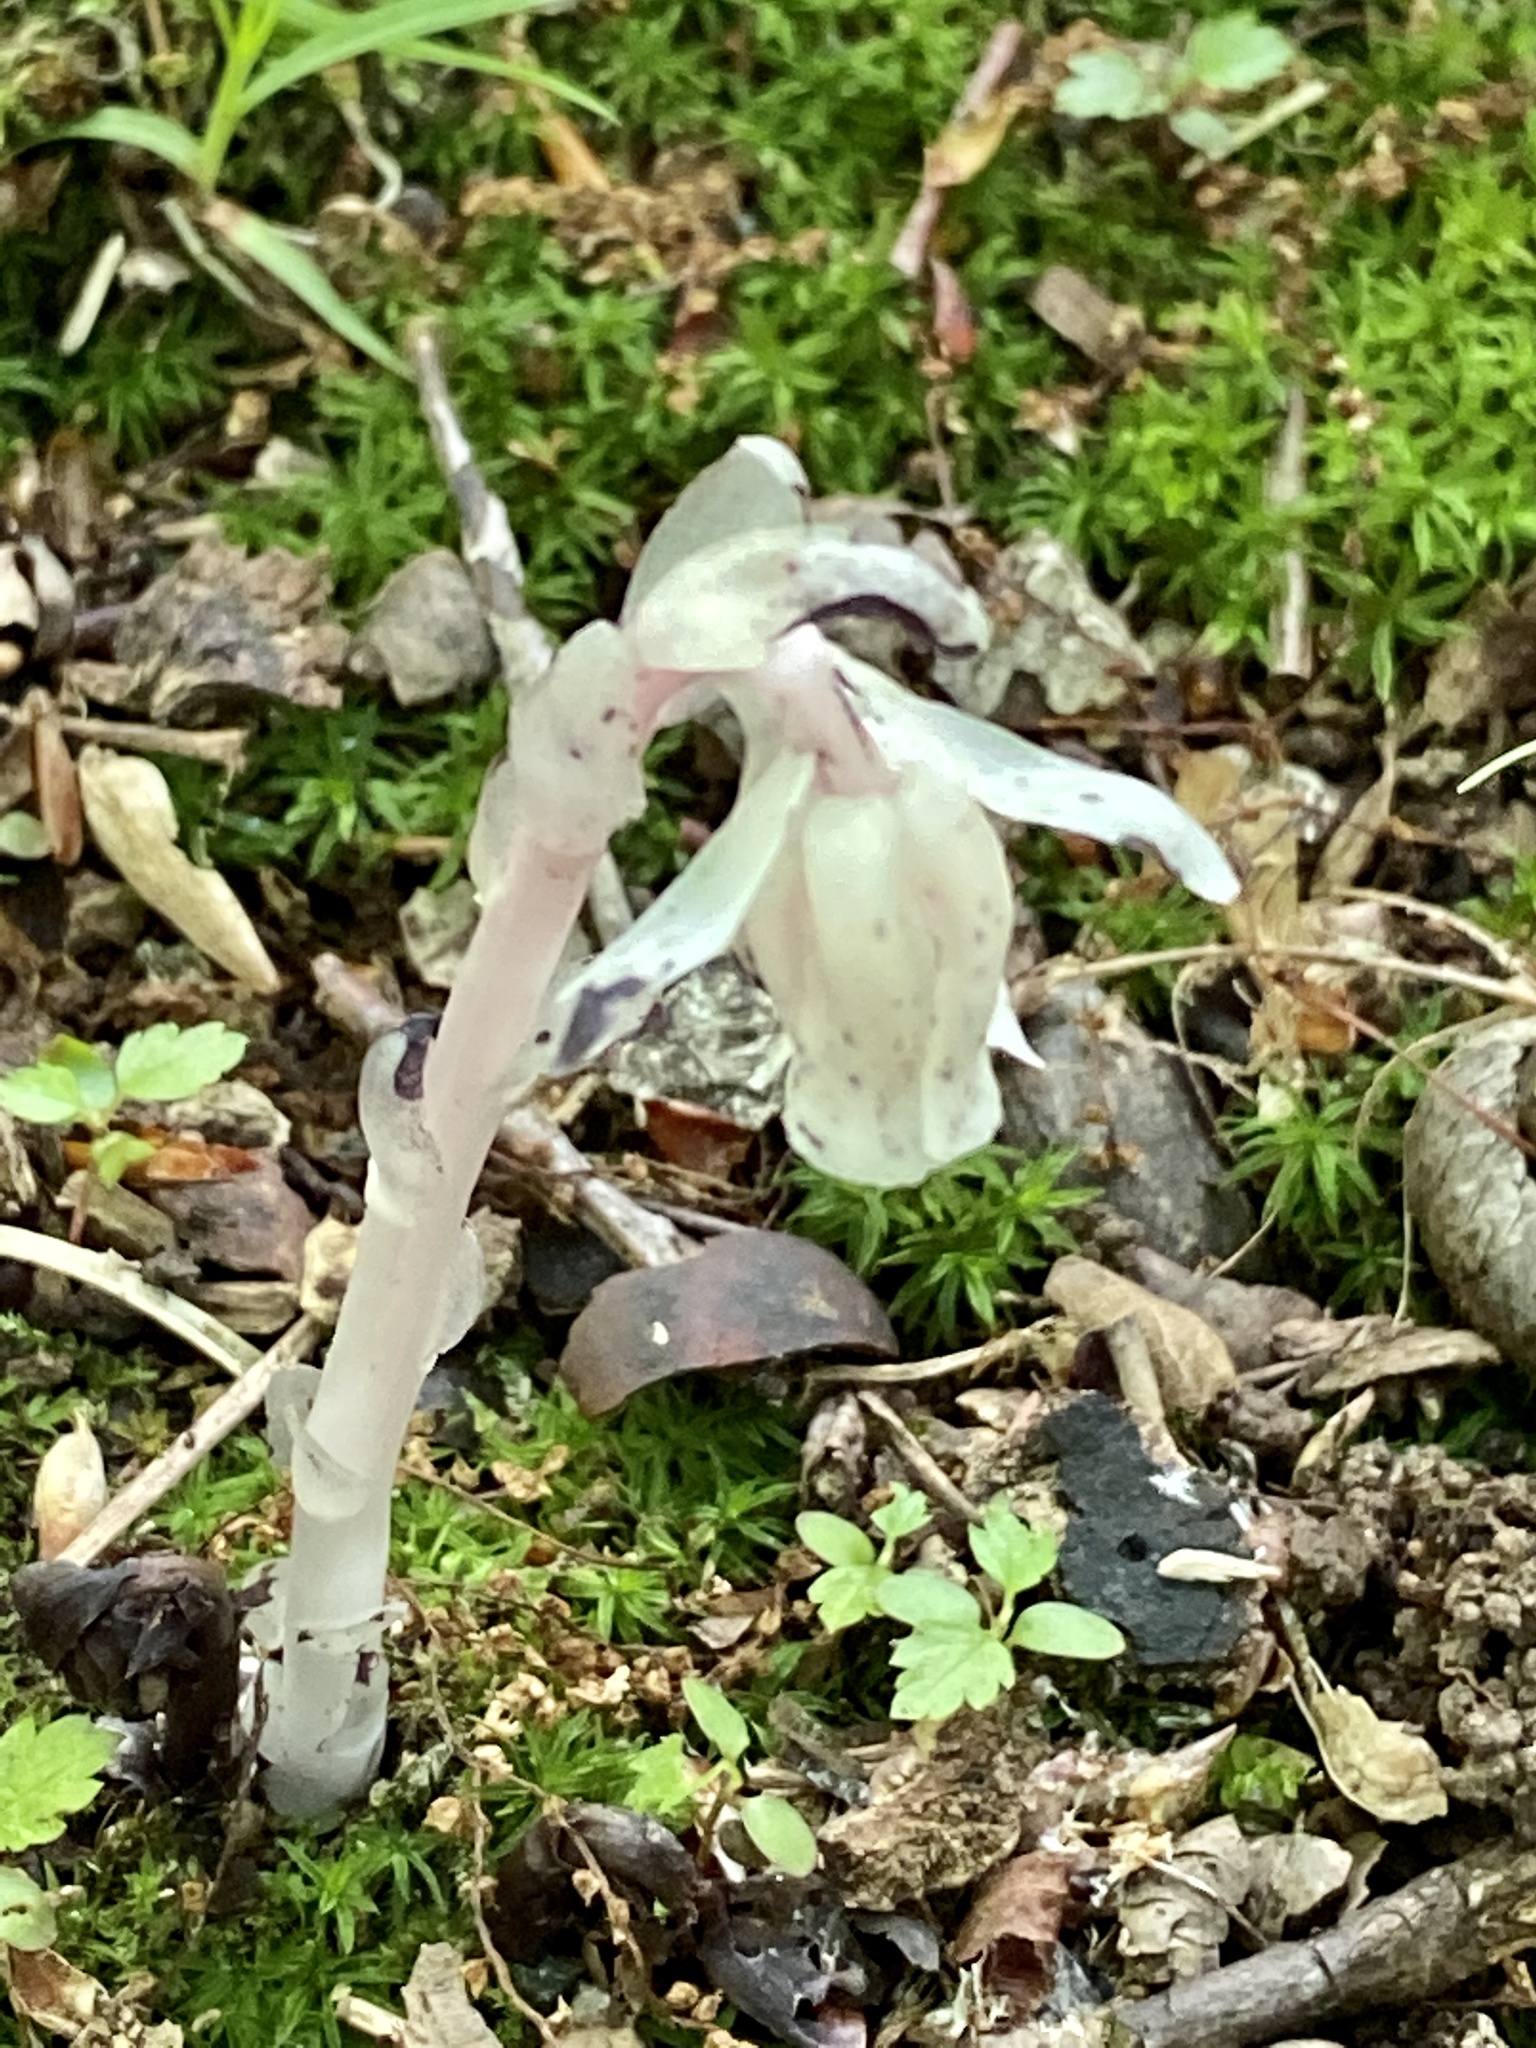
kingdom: Plantae
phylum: Tracheophyta
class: Magnoliopsida
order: Ericales
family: Ericaceae
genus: Monotropa
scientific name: Monotropa uniflora
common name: Convulsion root
